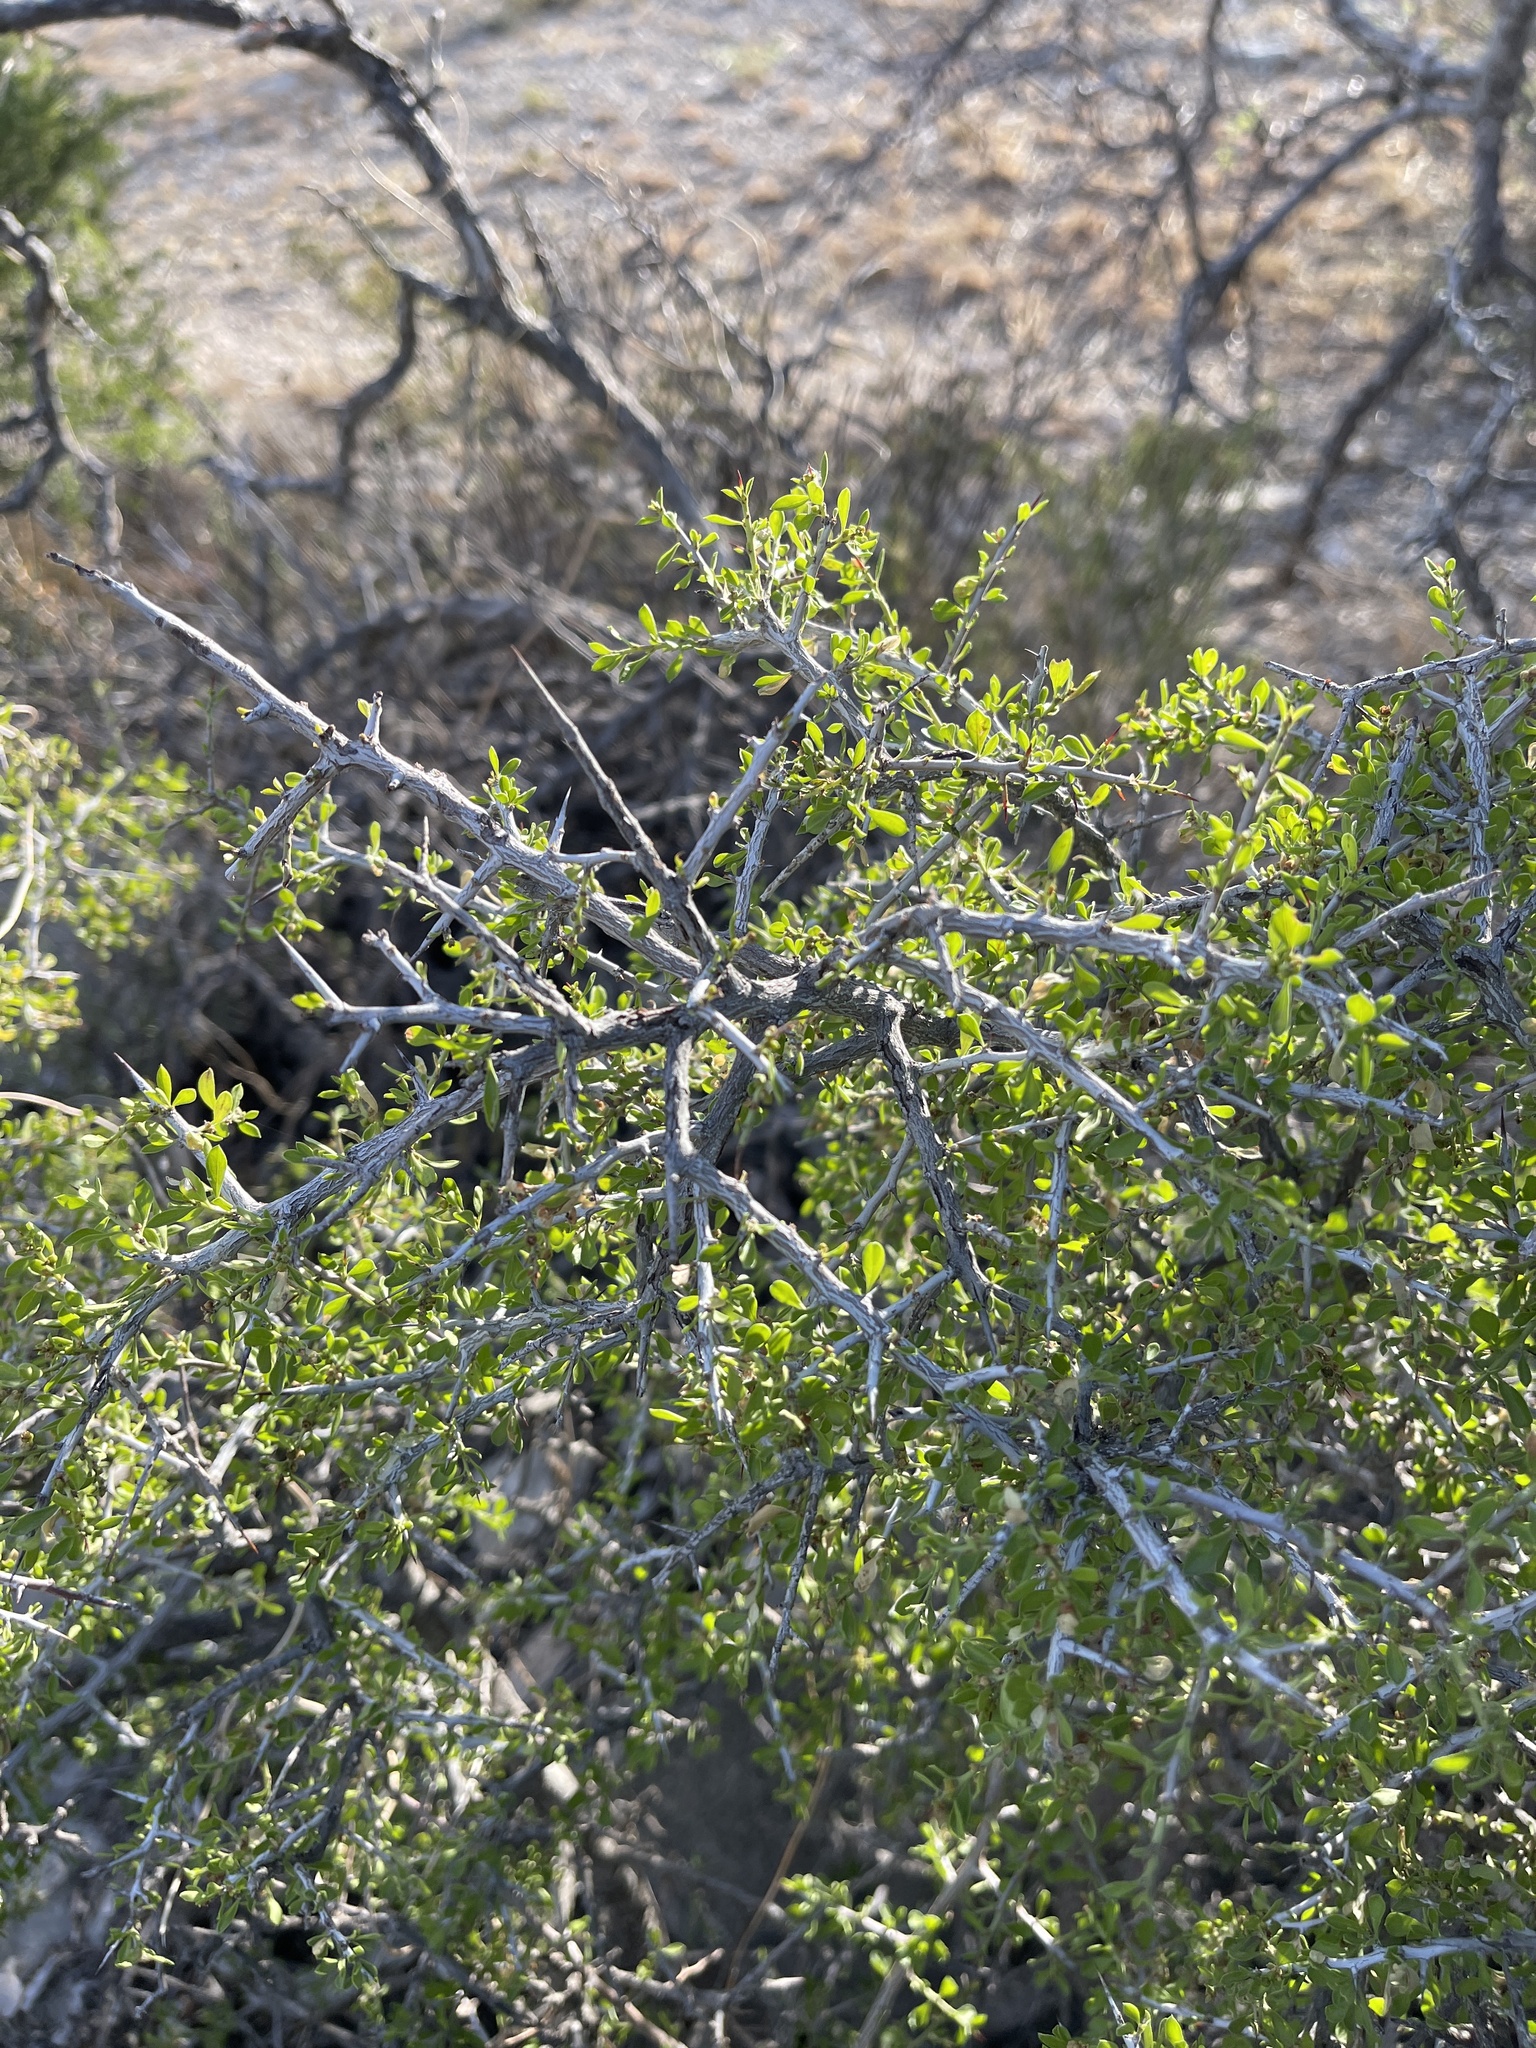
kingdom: Plantae
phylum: Tracheophyta
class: Magnoliopsida
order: Rosales
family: Rhamnaceae
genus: Condalia
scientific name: Condalia viridis
